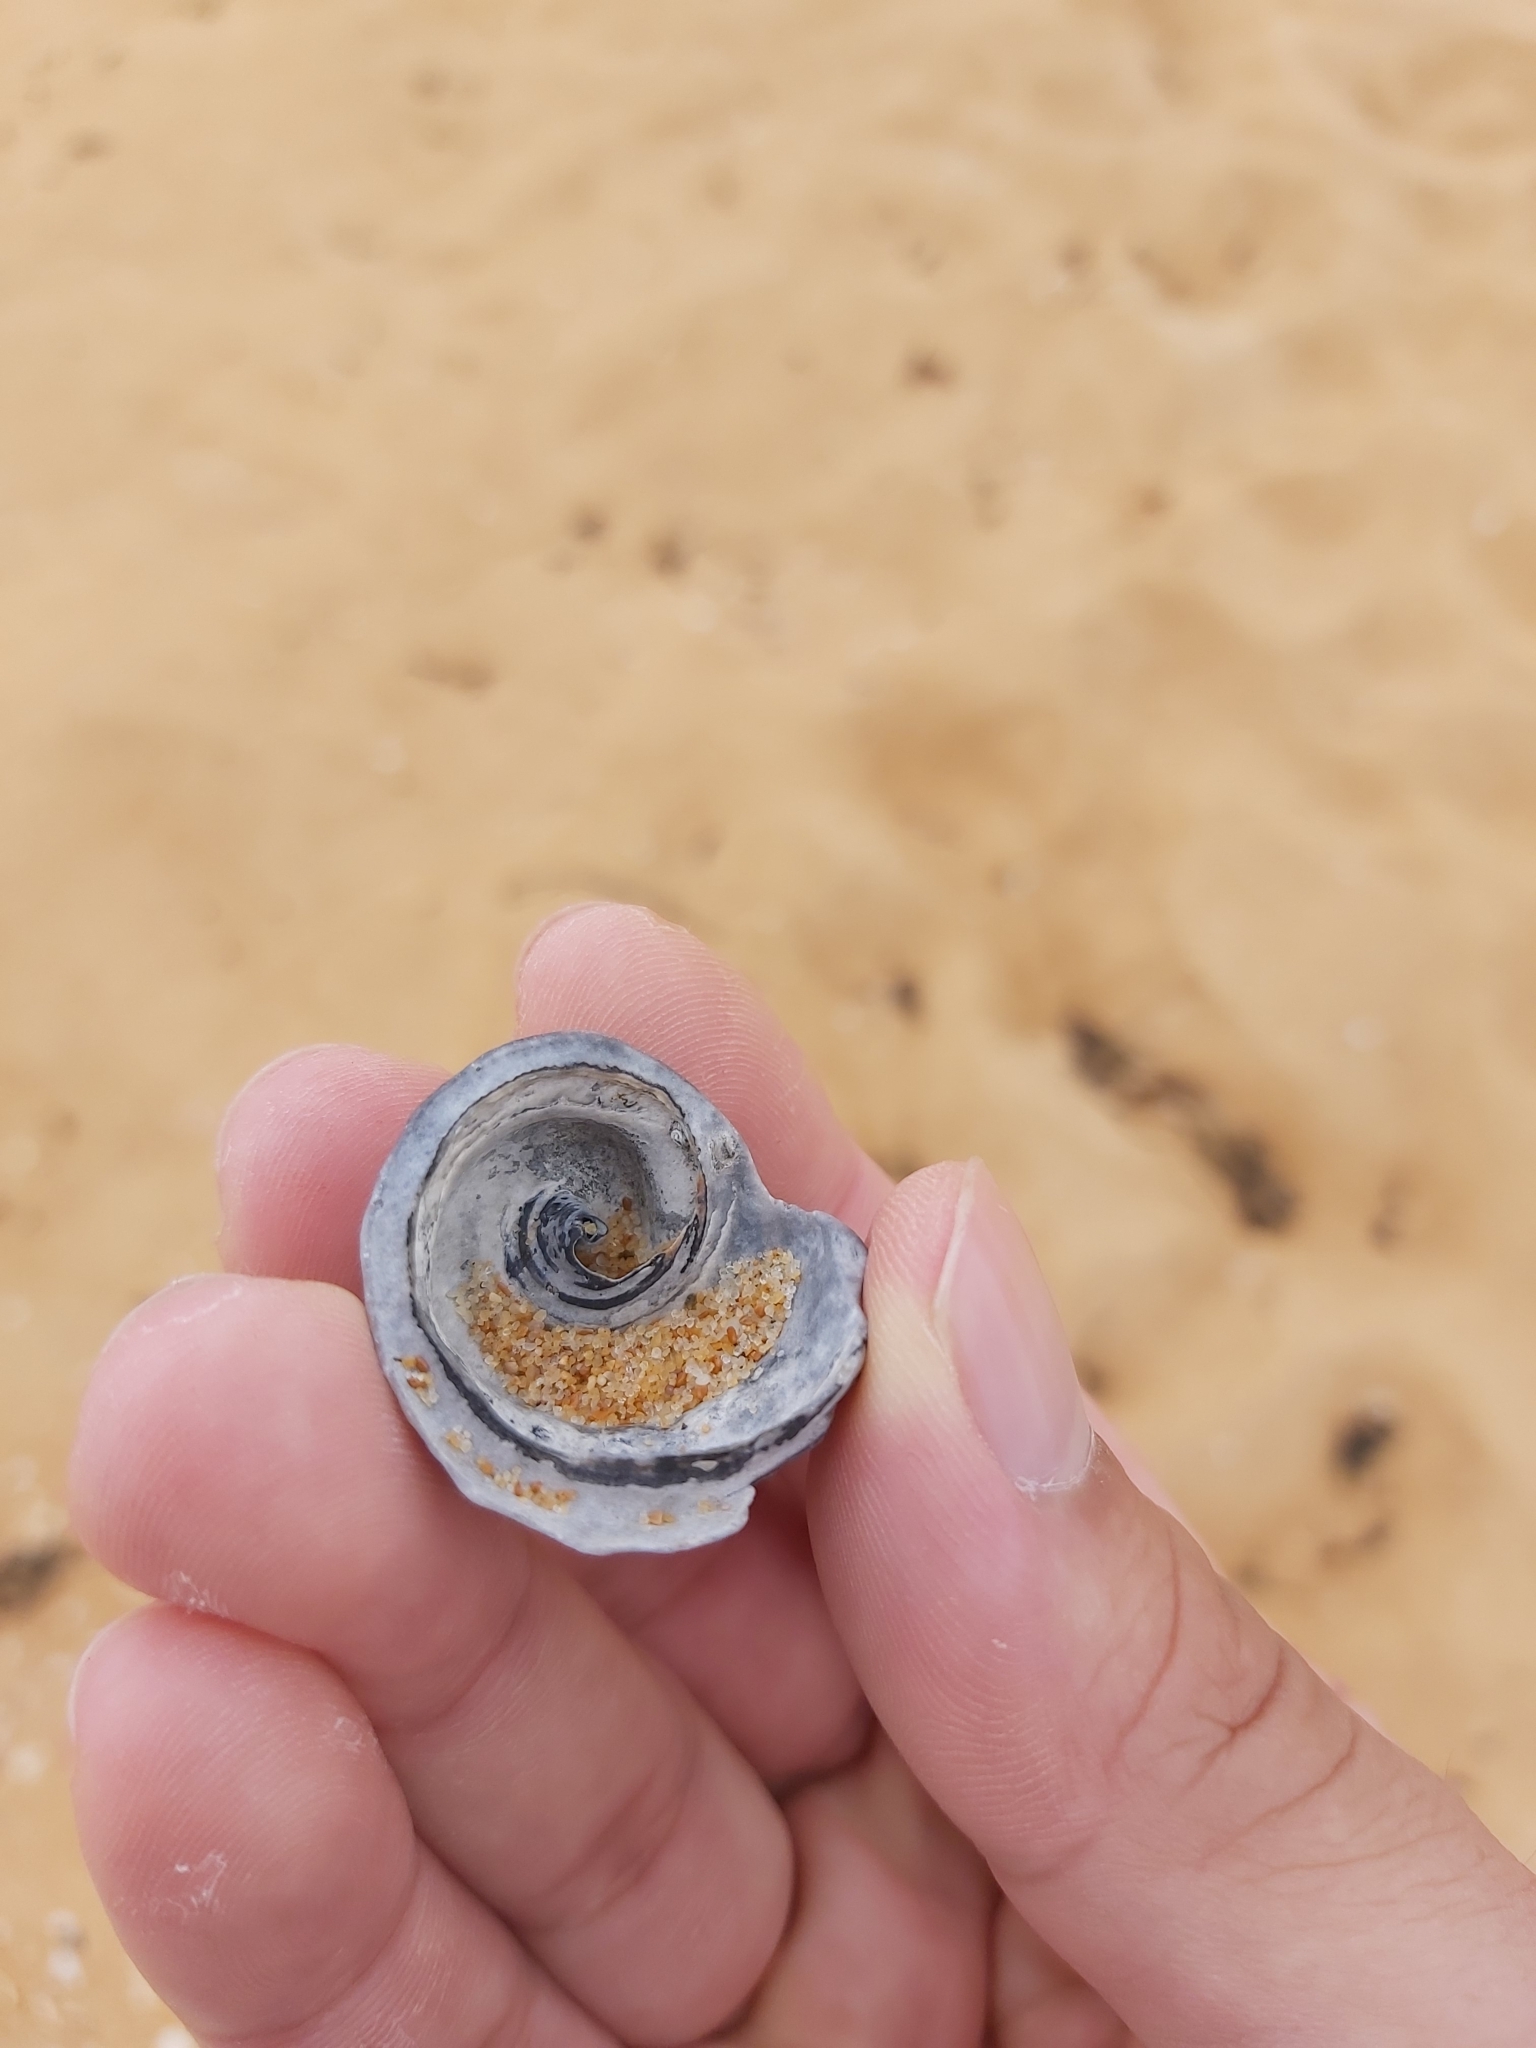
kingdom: Animalia
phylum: Mollusca
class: Gastropoda
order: Littorinimorpha
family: Cymatiidae
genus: Cabestana
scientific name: Cabestana spengleri
